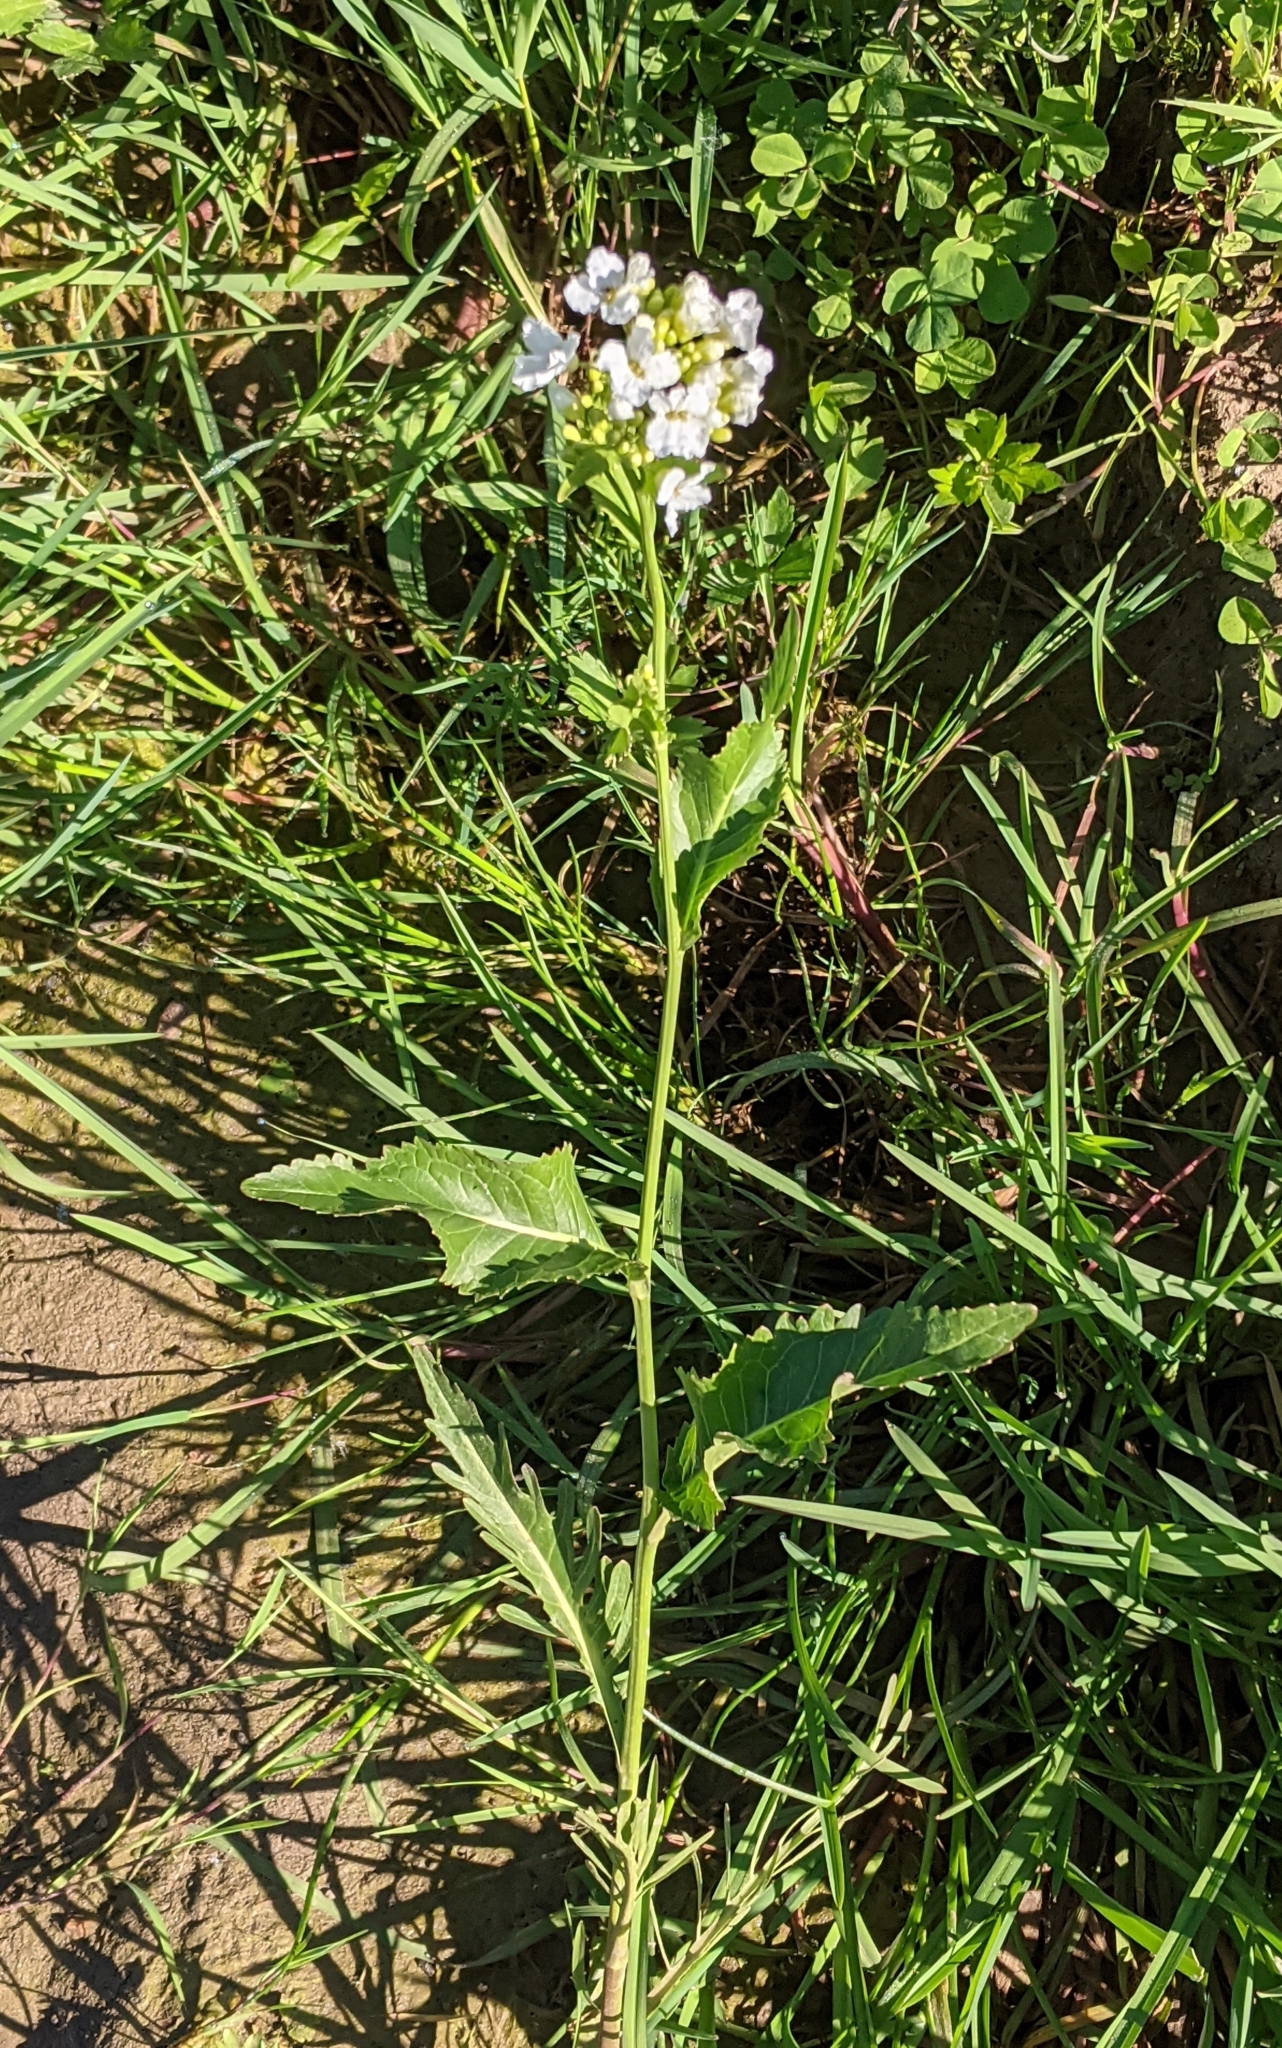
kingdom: Plantae
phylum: Tracheophyta
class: Magnoliopsida
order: Brassicales
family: Brassicaceae
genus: Armoracia
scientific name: Armoracia rusticana
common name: Horseradish
